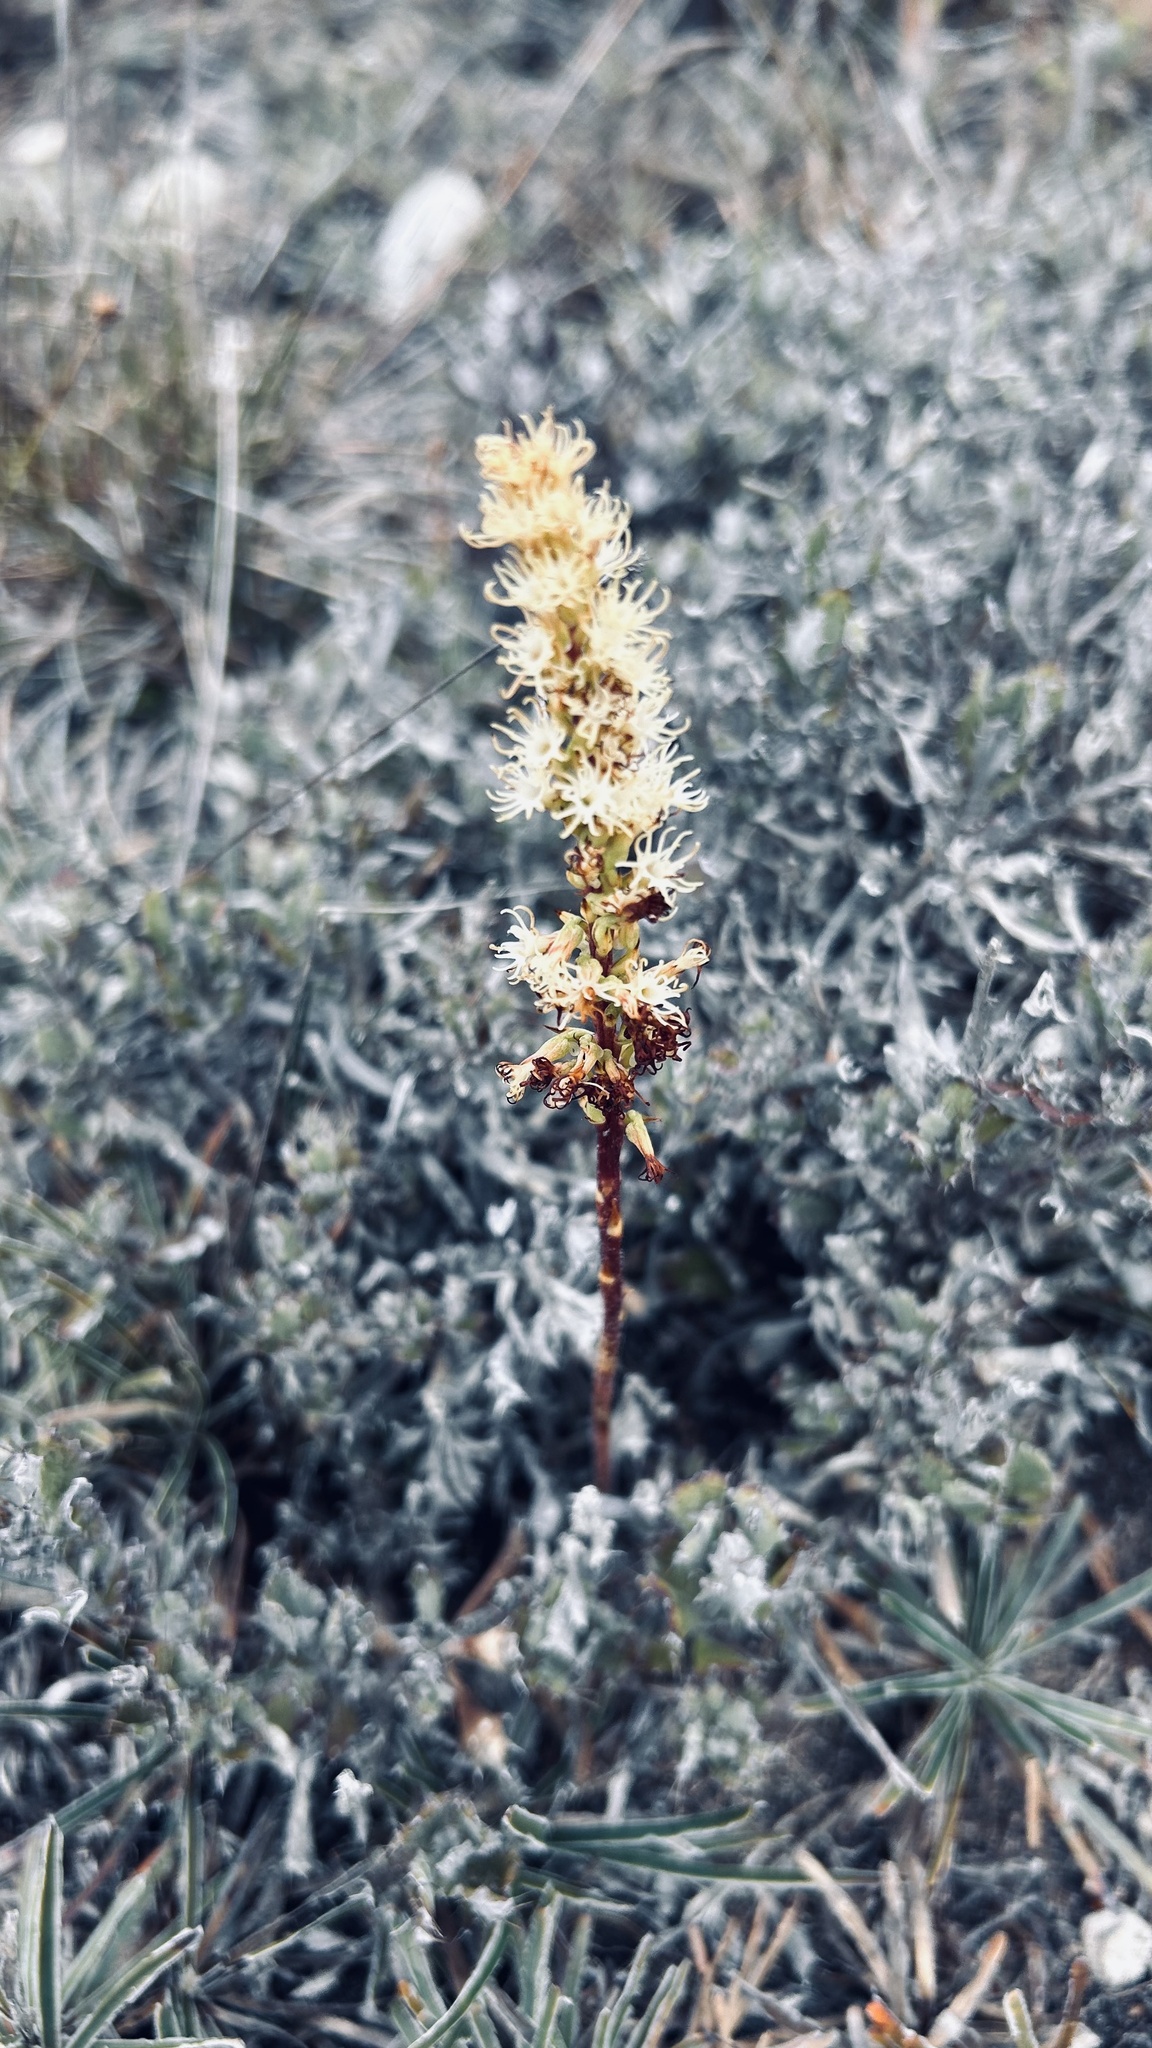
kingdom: Plantae
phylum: Tracheophyta
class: Liliopsida
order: Asparagales
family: Orchidaceae
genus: Holothrix
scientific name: Holothrix schlechteriana
